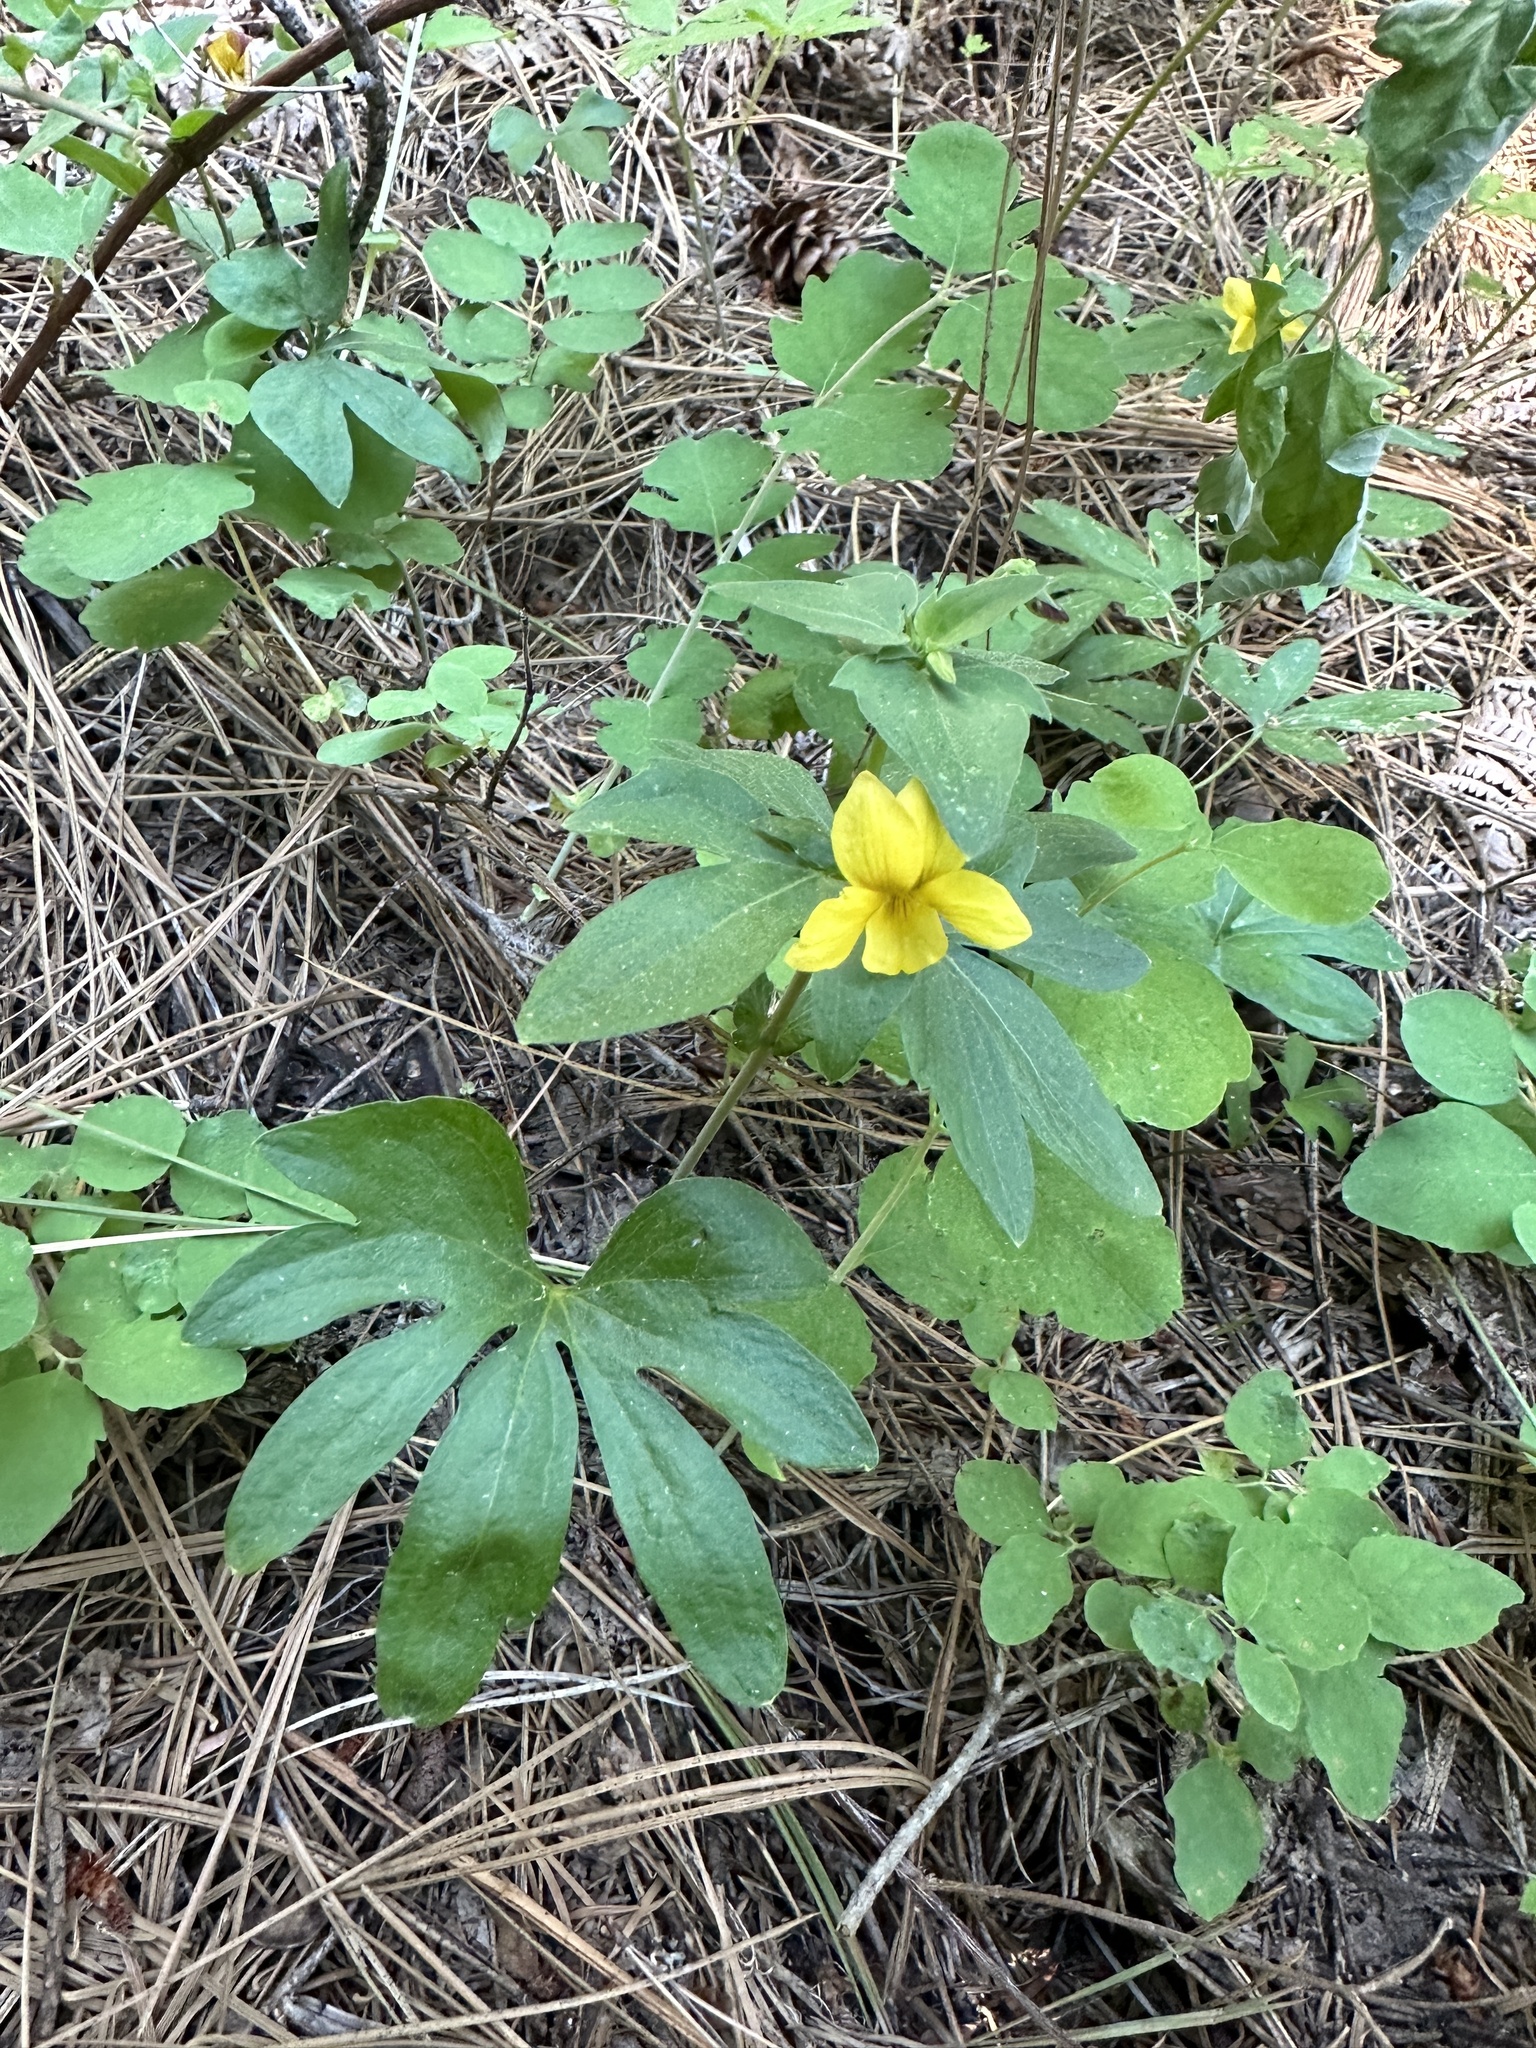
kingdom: Plantae
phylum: Tracheophyta
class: Magnoliopsida
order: Malpighiales
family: Violaceae
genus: Viola
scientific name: Viola lobata
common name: Pine violet
